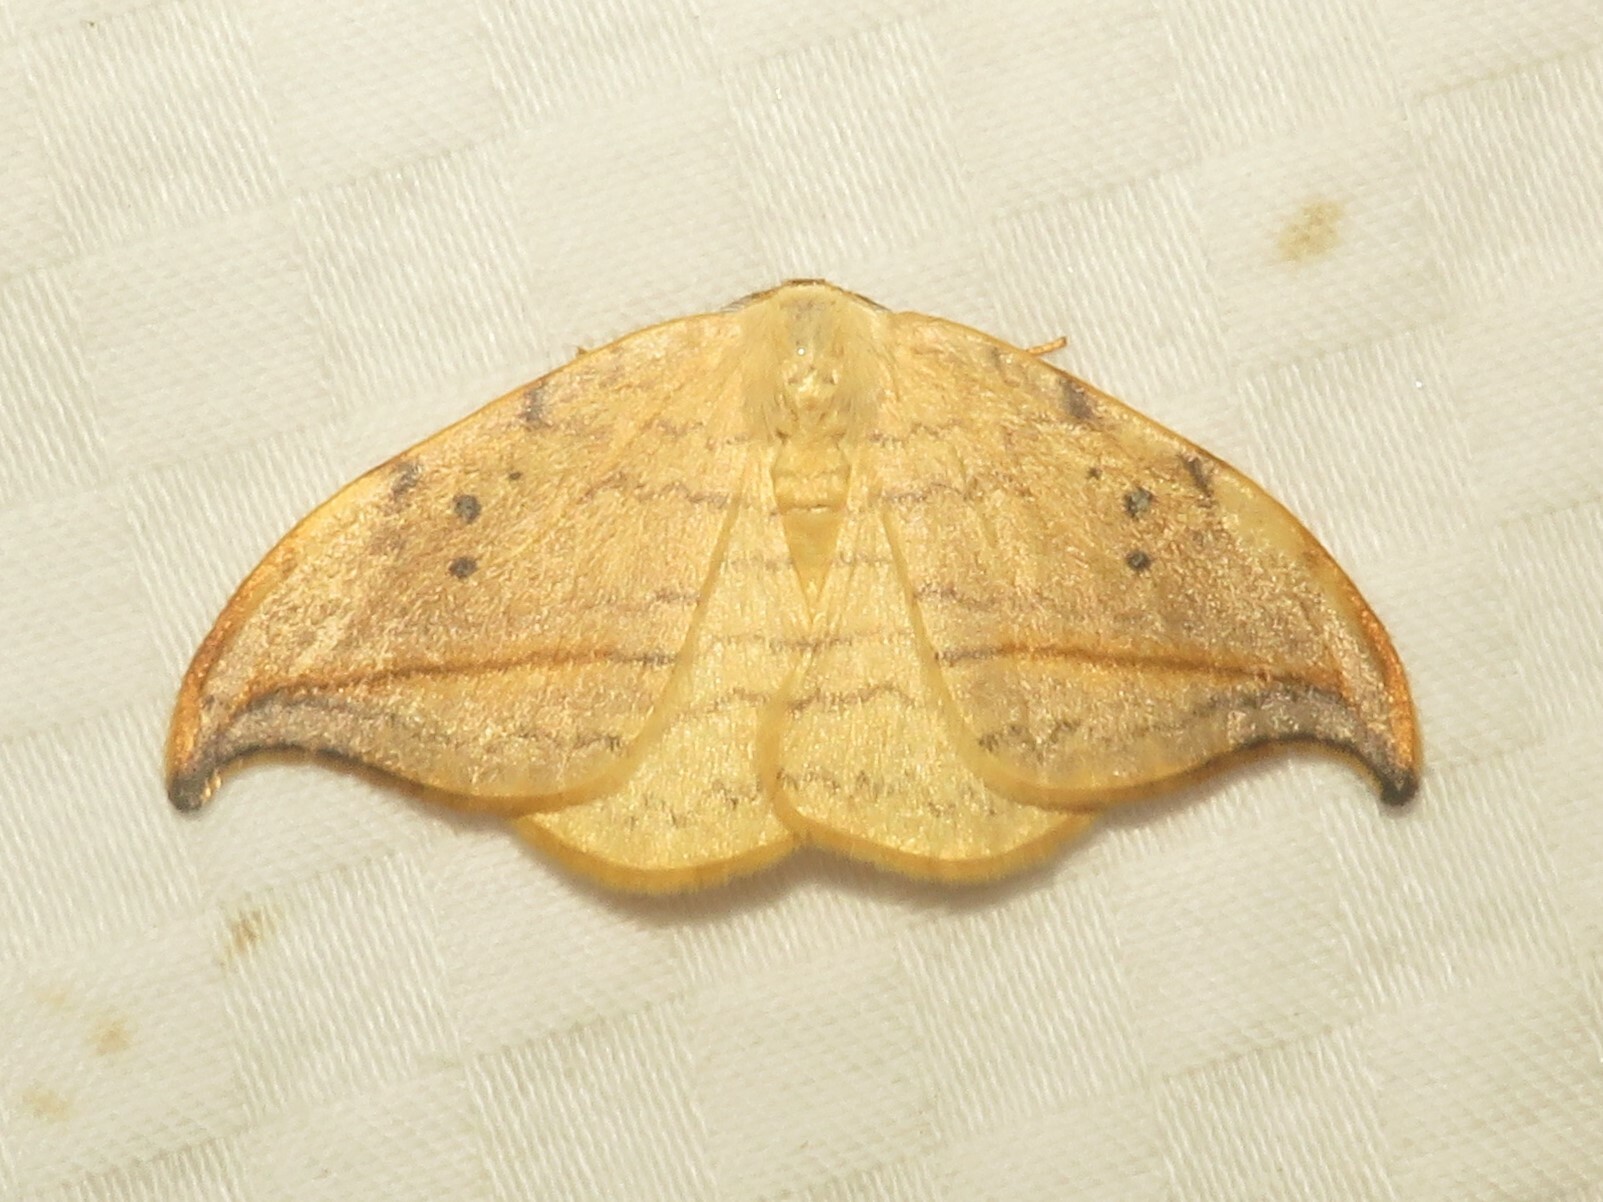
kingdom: Animalia
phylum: Arthropoda
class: Insecta
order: Lepidoptera
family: Drepanidae
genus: Drepana
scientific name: Drepana arcuata
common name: Arched hooktip moth
